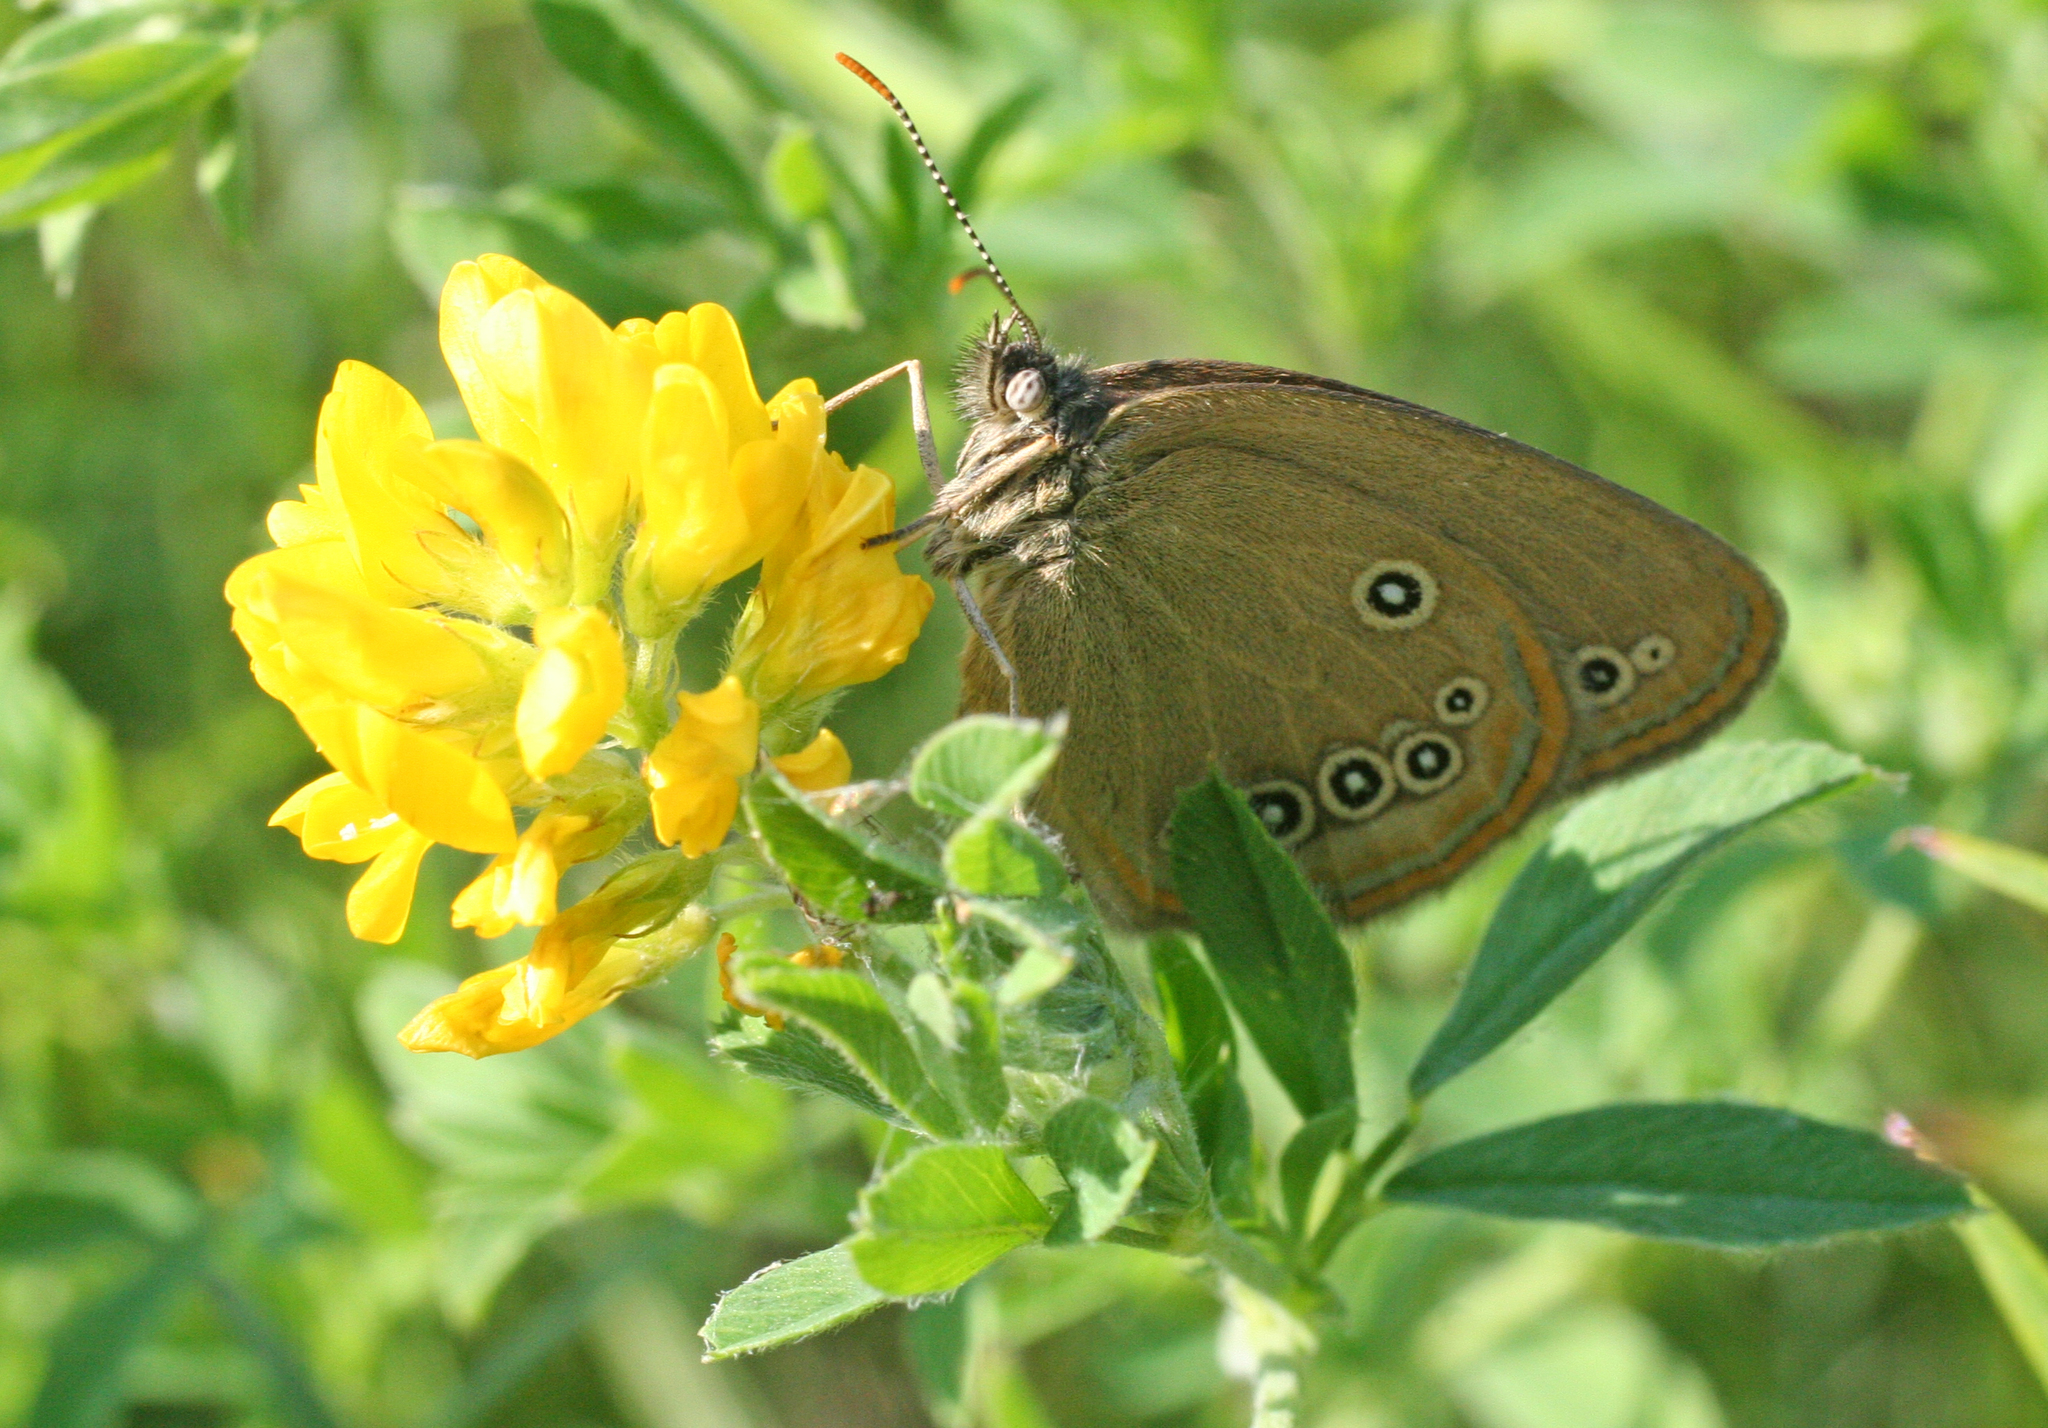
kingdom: Animalia
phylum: Arthropoda
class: Insecta
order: Lepidoptera
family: Nymphalidae
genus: Coenonympha
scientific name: Coenonympha oedippus
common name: False ringlet
